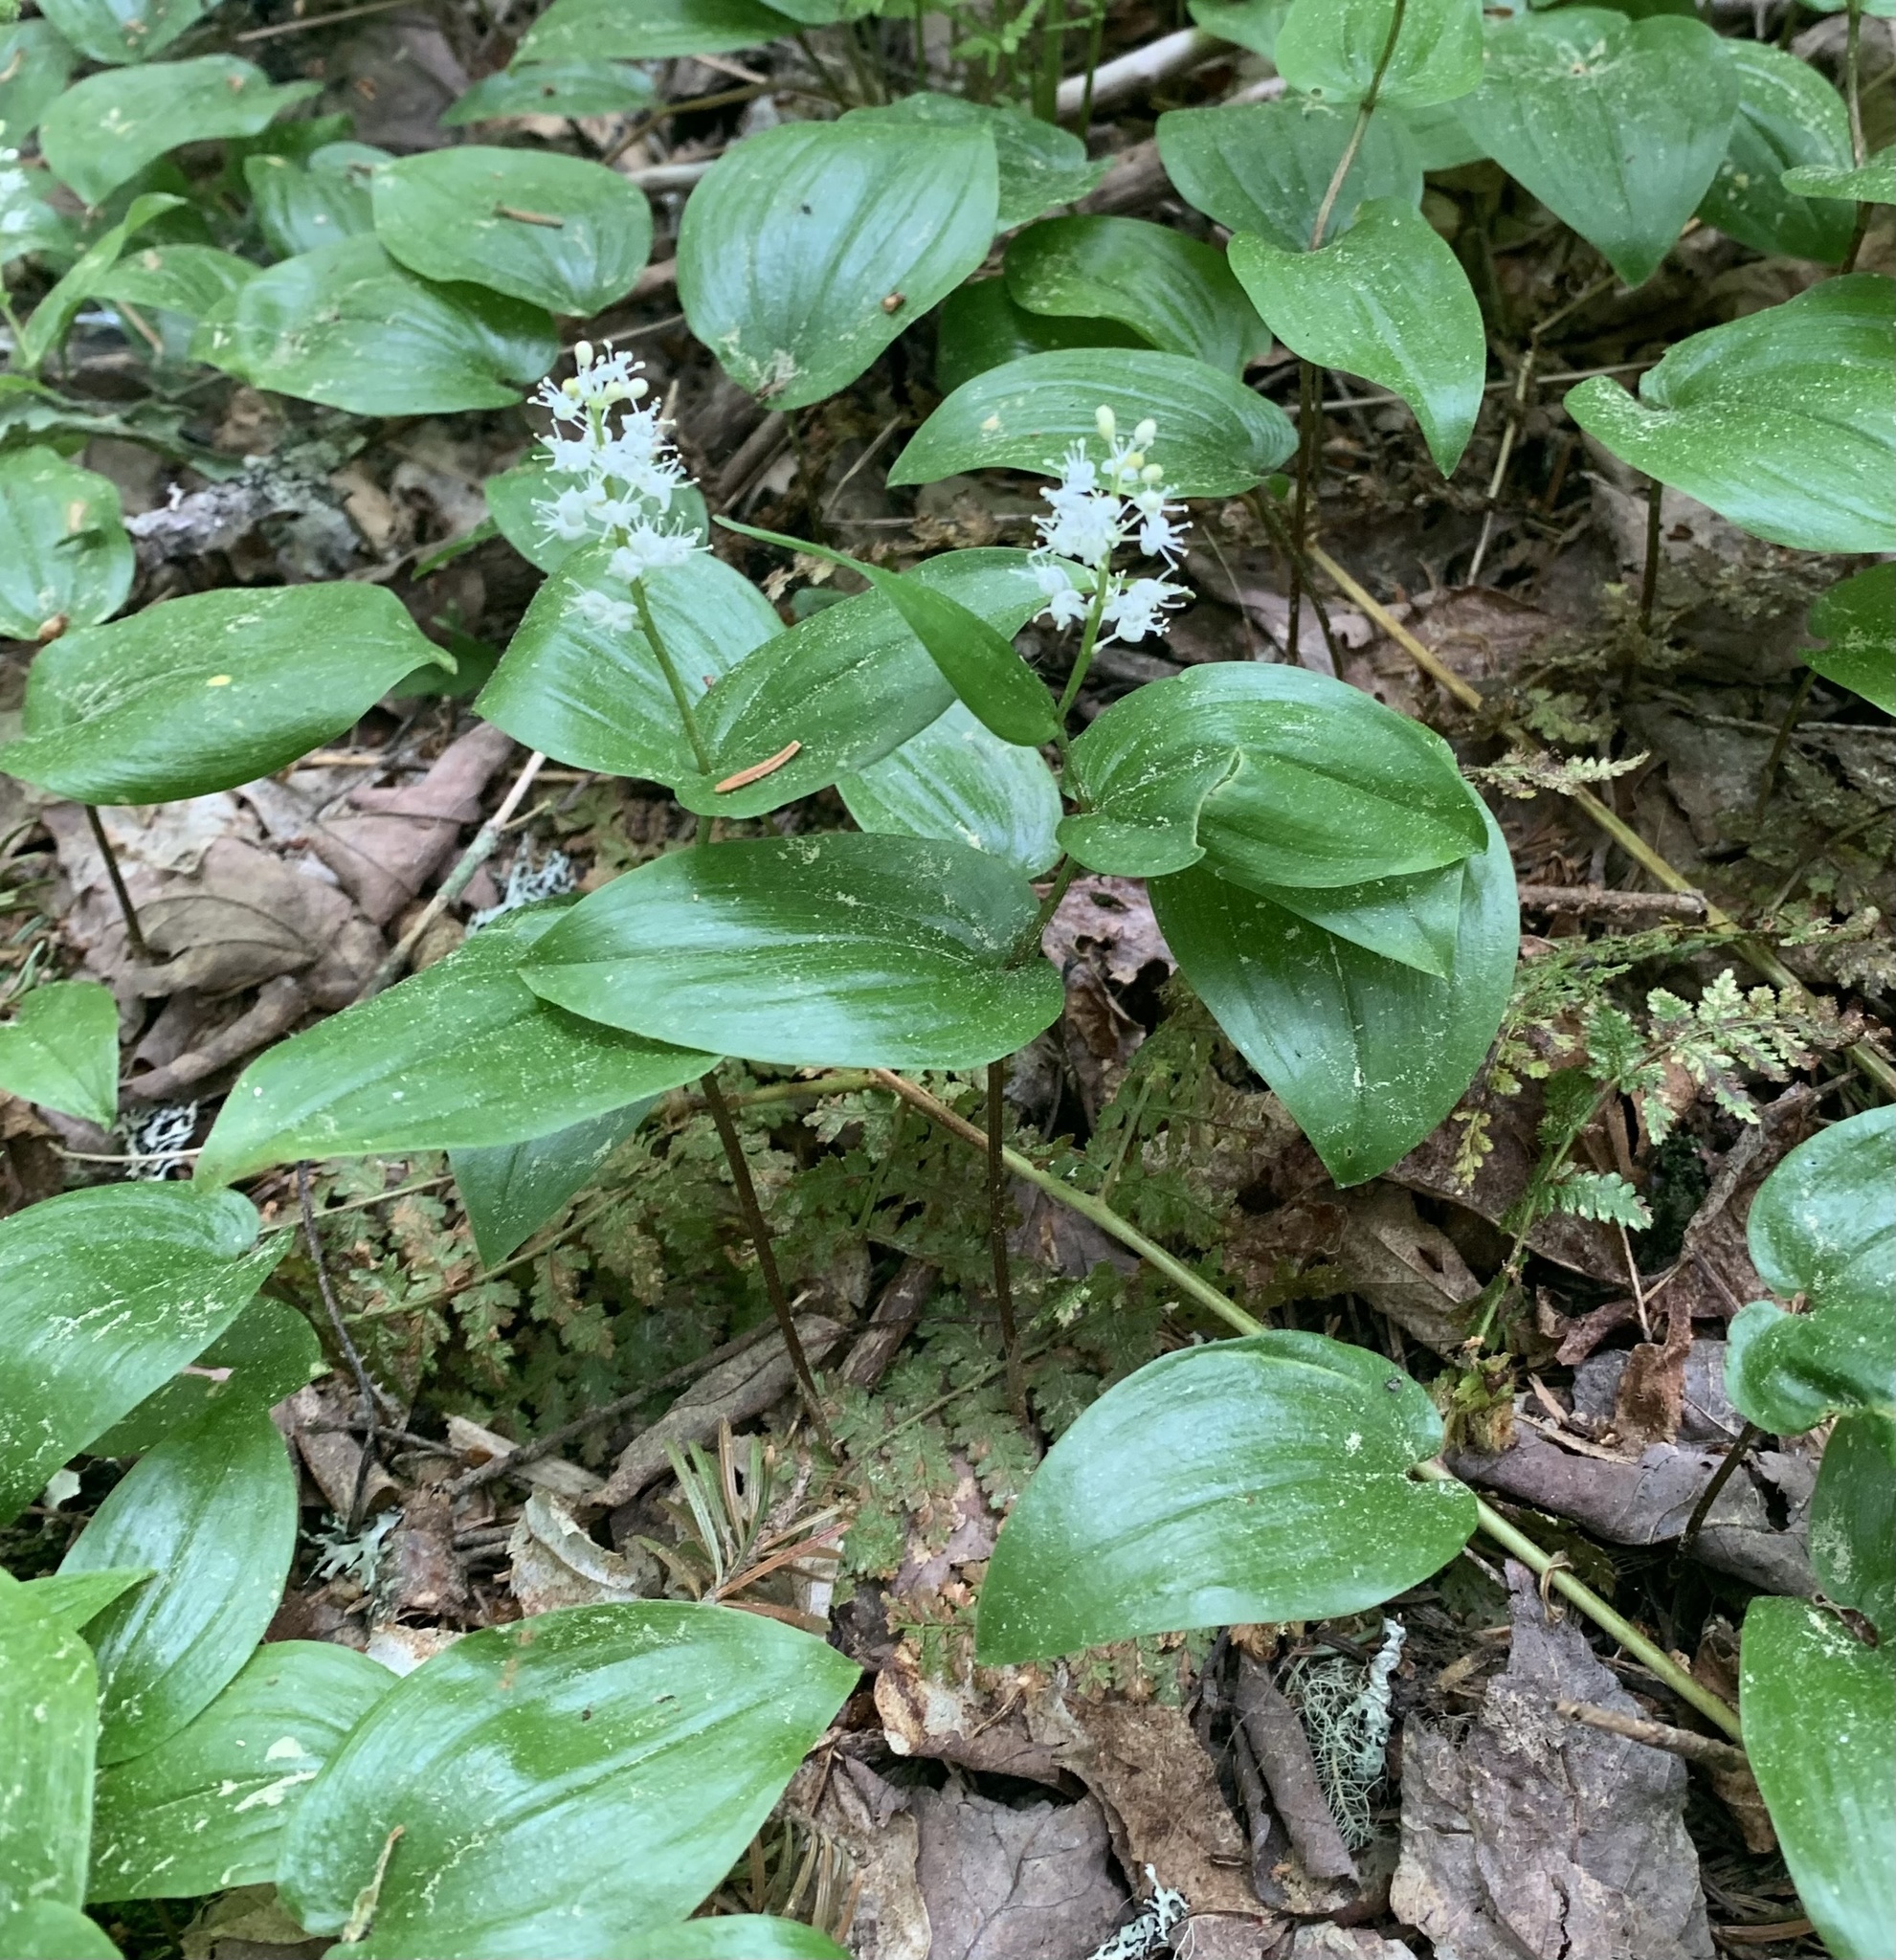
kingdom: Plantae
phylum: Tracheophyta
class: Liliopsida
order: Asparagales
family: Asparagaceae
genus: Maianthemum
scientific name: Maianthemum canadense
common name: False lily-of-the-valley
